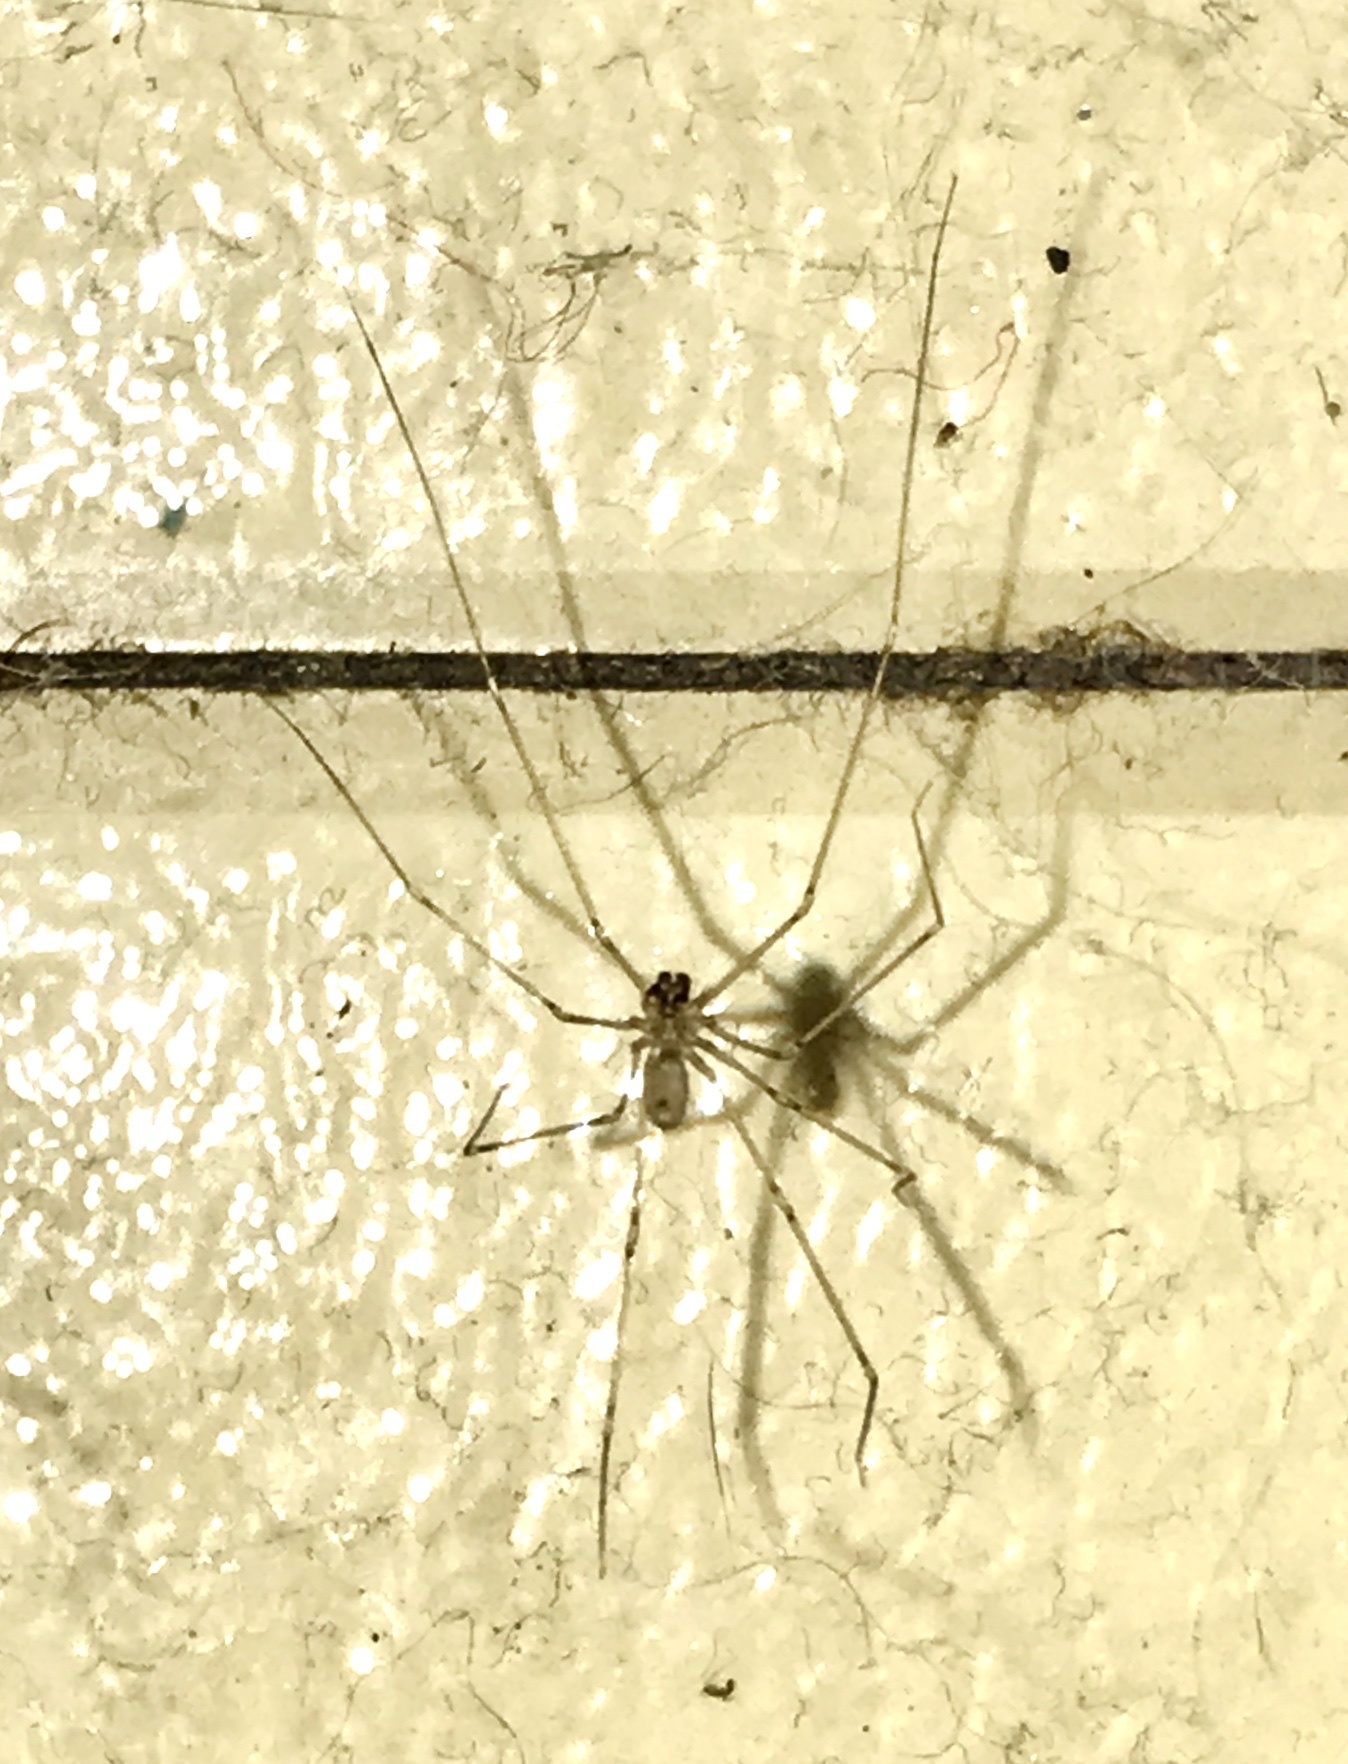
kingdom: Animalia
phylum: Arthropoda
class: Arachnida
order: Araneae
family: Pholcidae
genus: Pholcus
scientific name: Pholcus phalangioides
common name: Longbodied cellar spider
